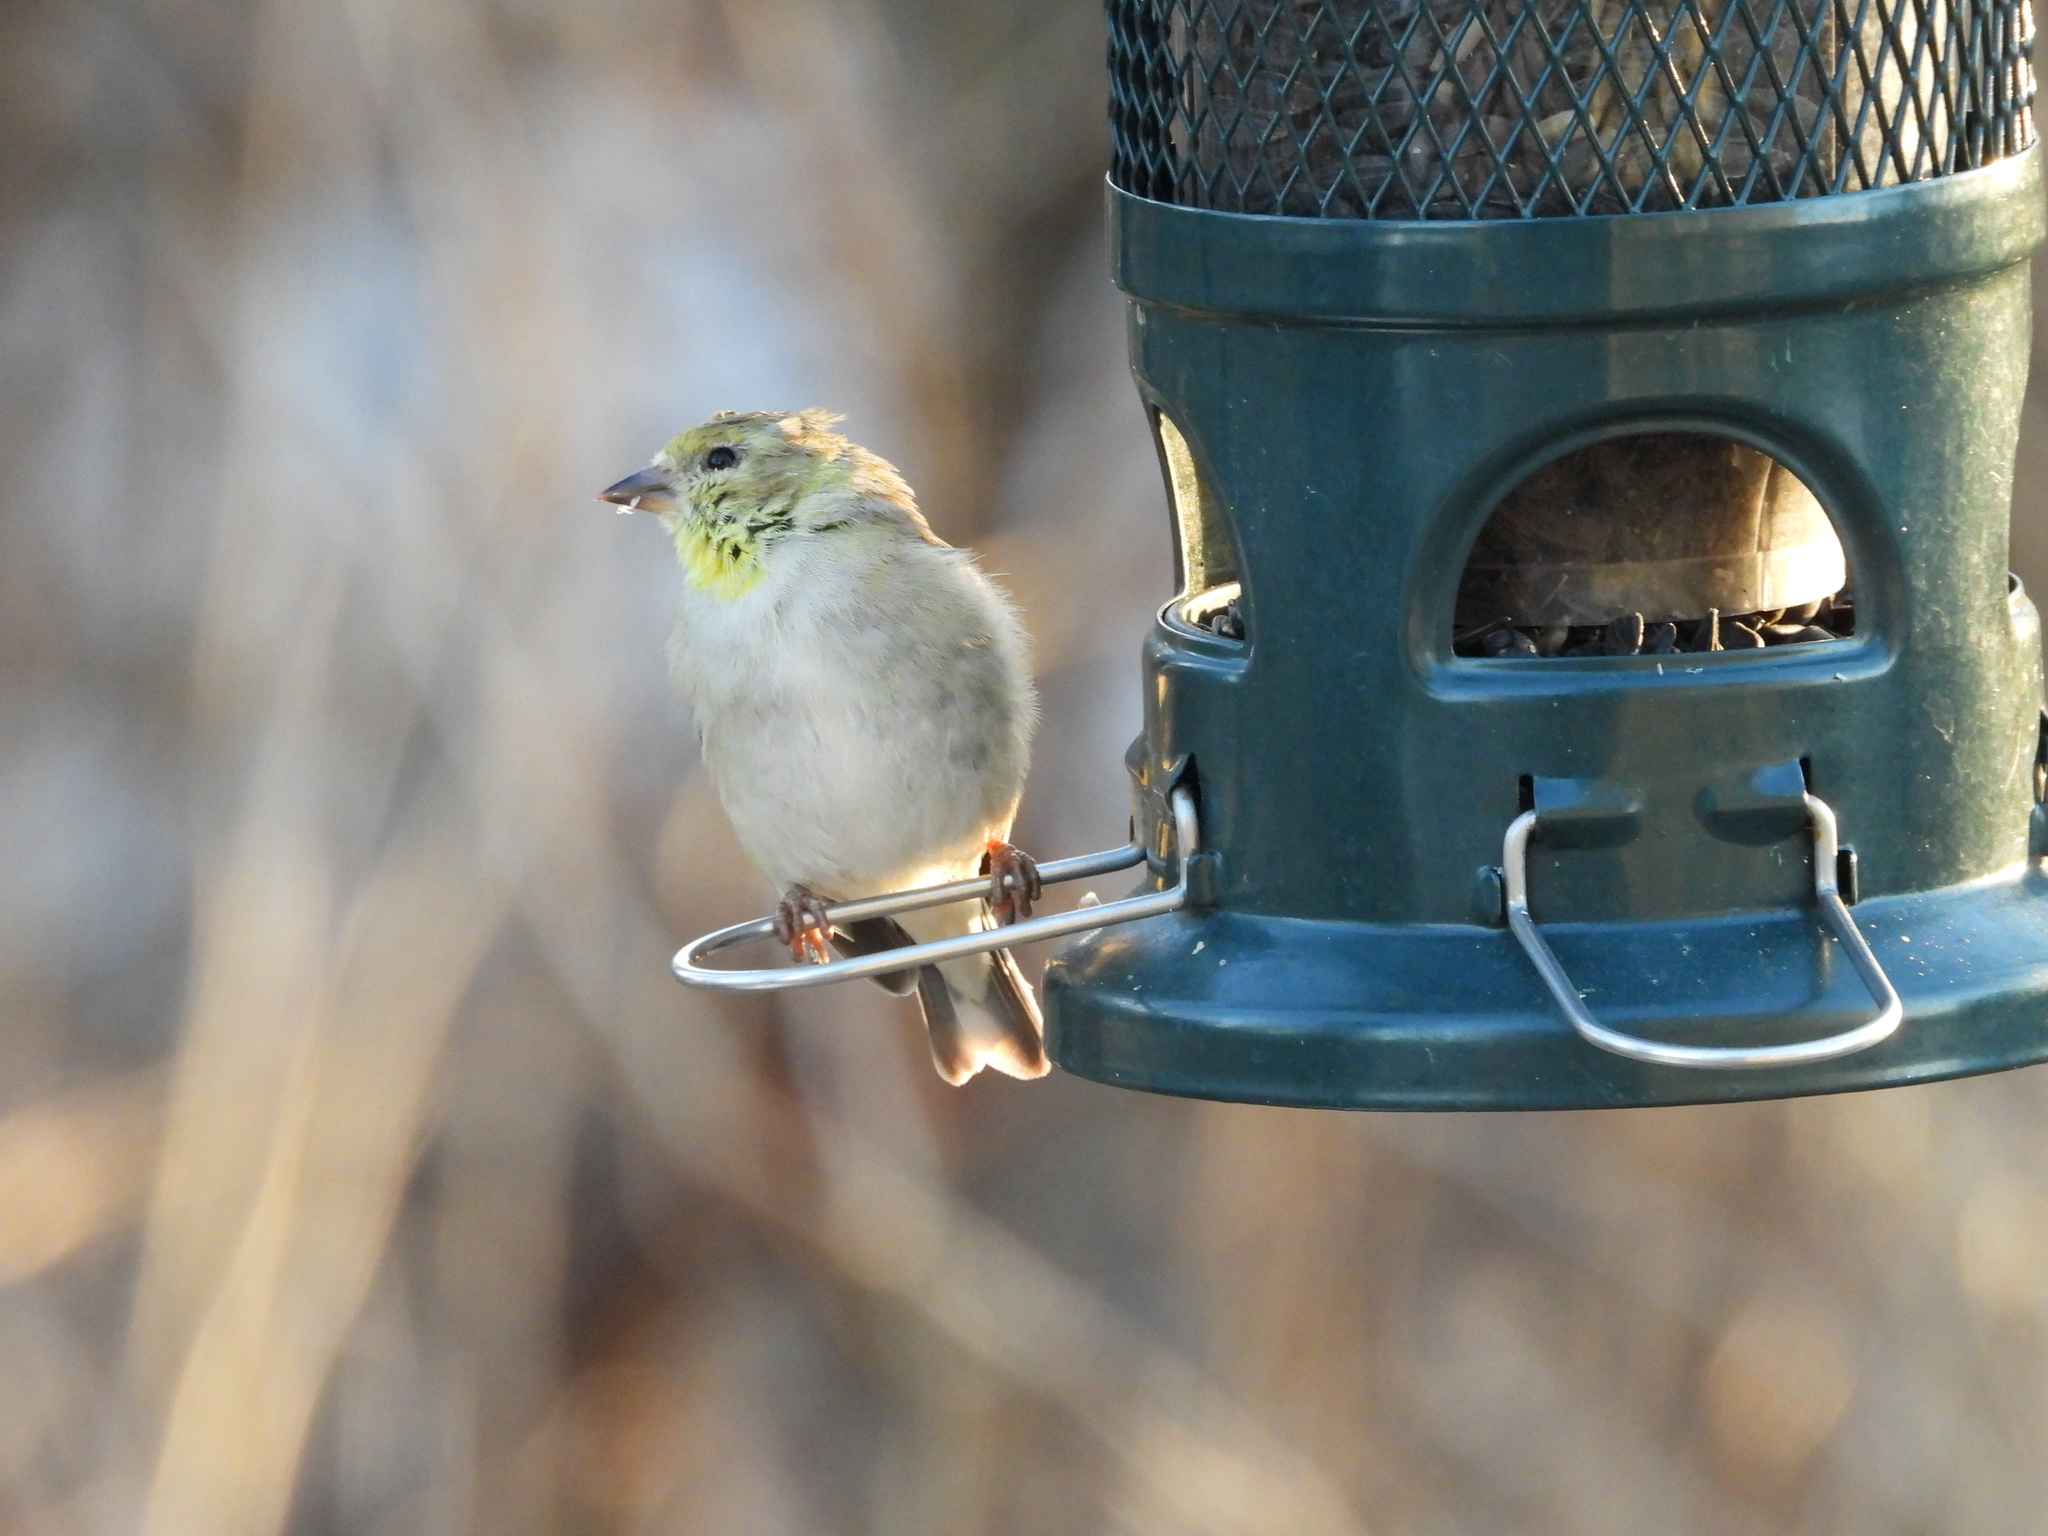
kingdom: Animalia
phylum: Chordata
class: Aves
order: Passeriformes
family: Fringillidae
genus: Spinus
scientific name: Spinus tristis
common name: American goldfinch
